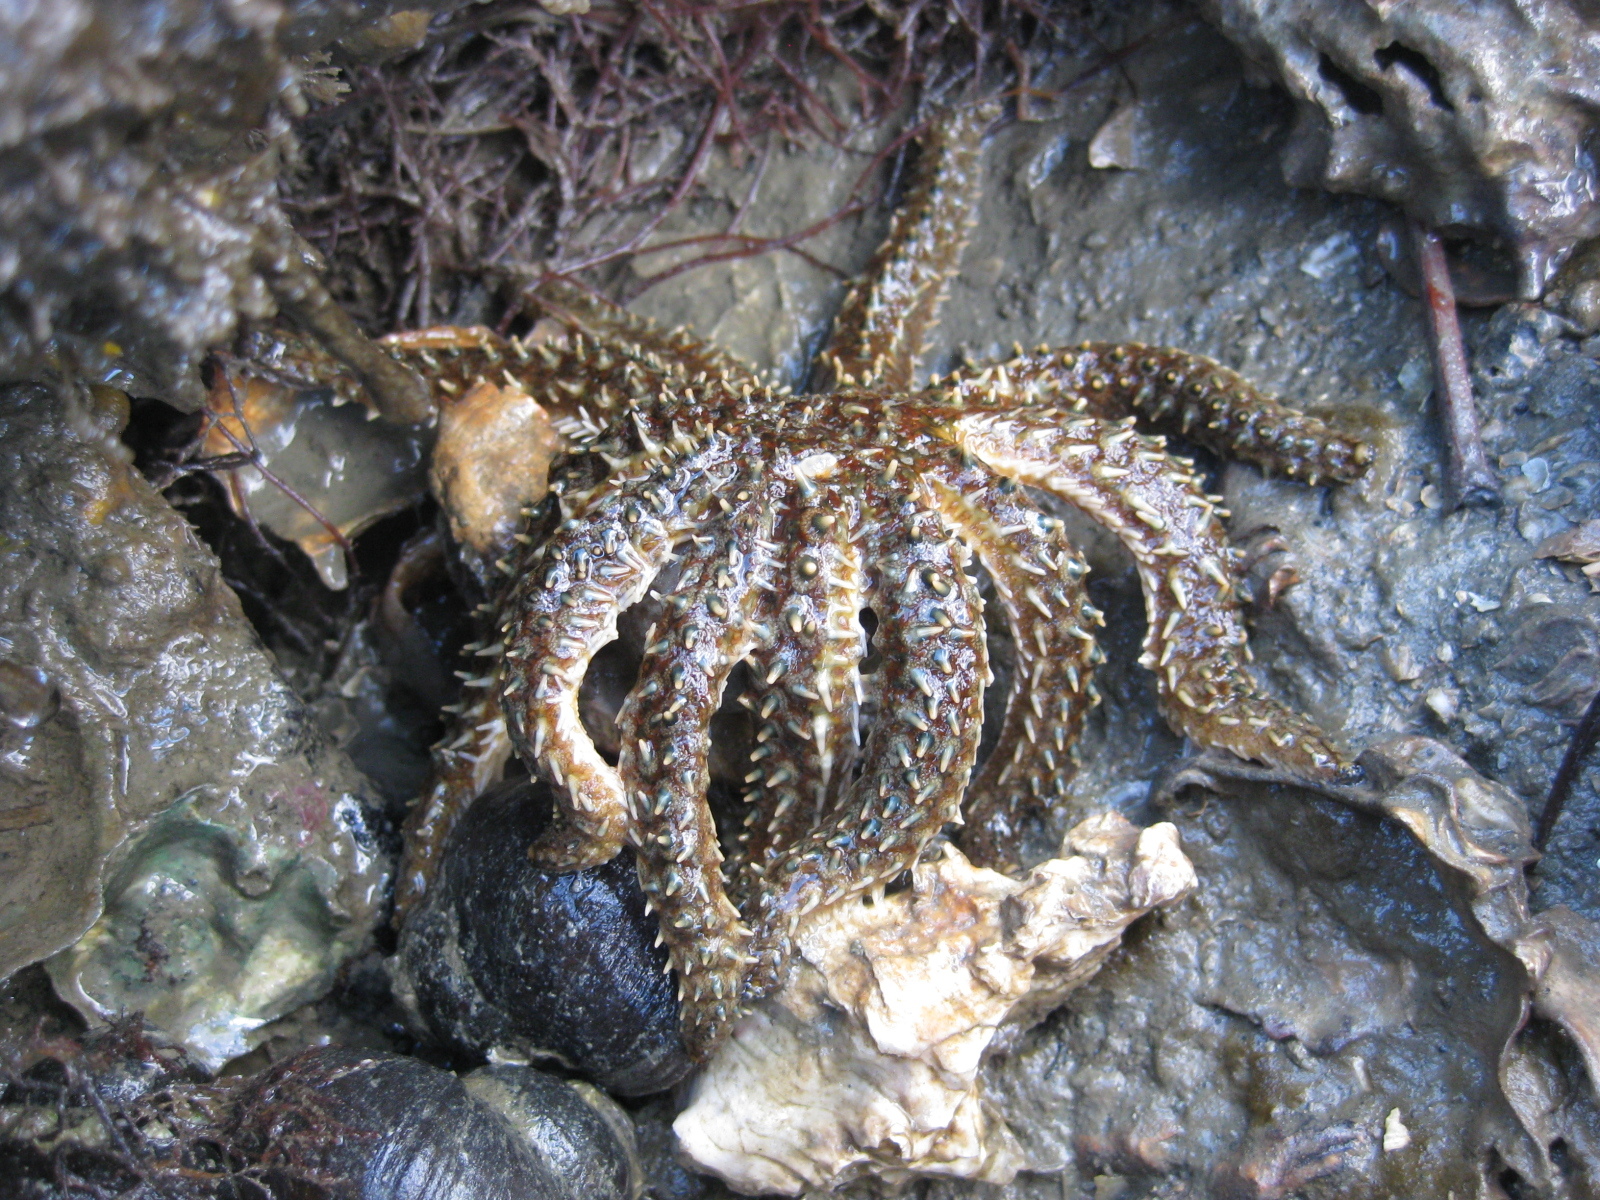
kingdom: Animalia
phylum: Echinodermata
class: Asteroidea
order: Forcipulatida
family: Asteriidae
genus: Coscinasterias
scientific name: Coscinasterias muricata
